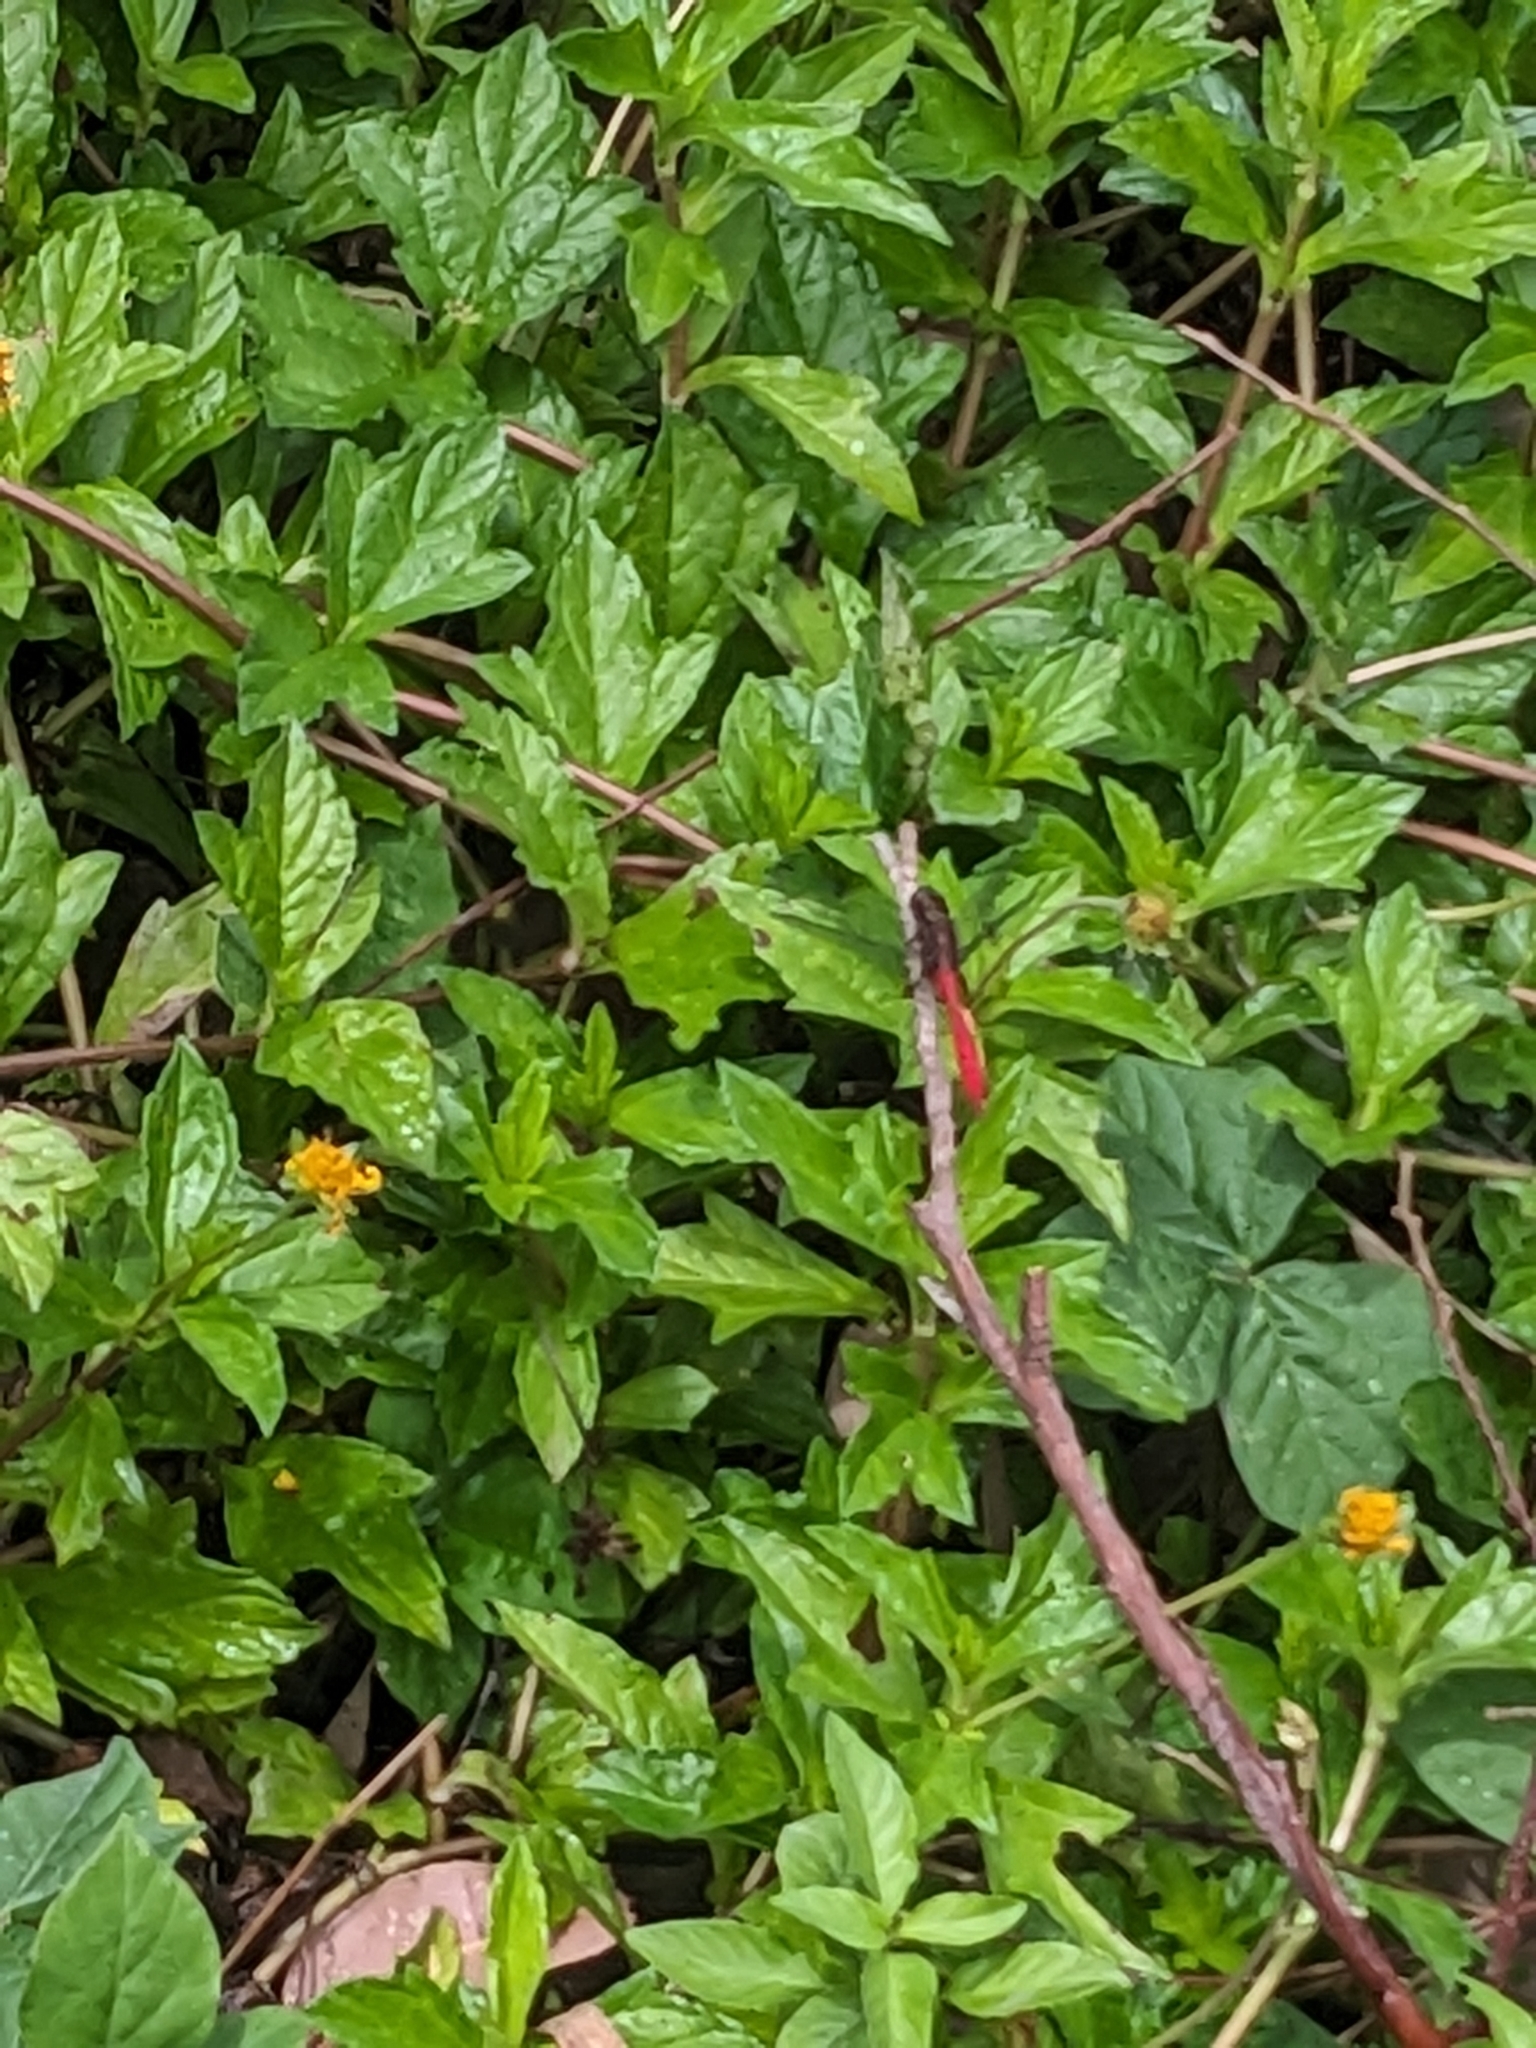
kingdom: Animalia
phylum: Arthropoda
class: Insecta
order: Odonata
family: Libellulidae
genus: Orthetrum
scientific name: Orthetrum villosovittatum
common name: Firery skimmer
